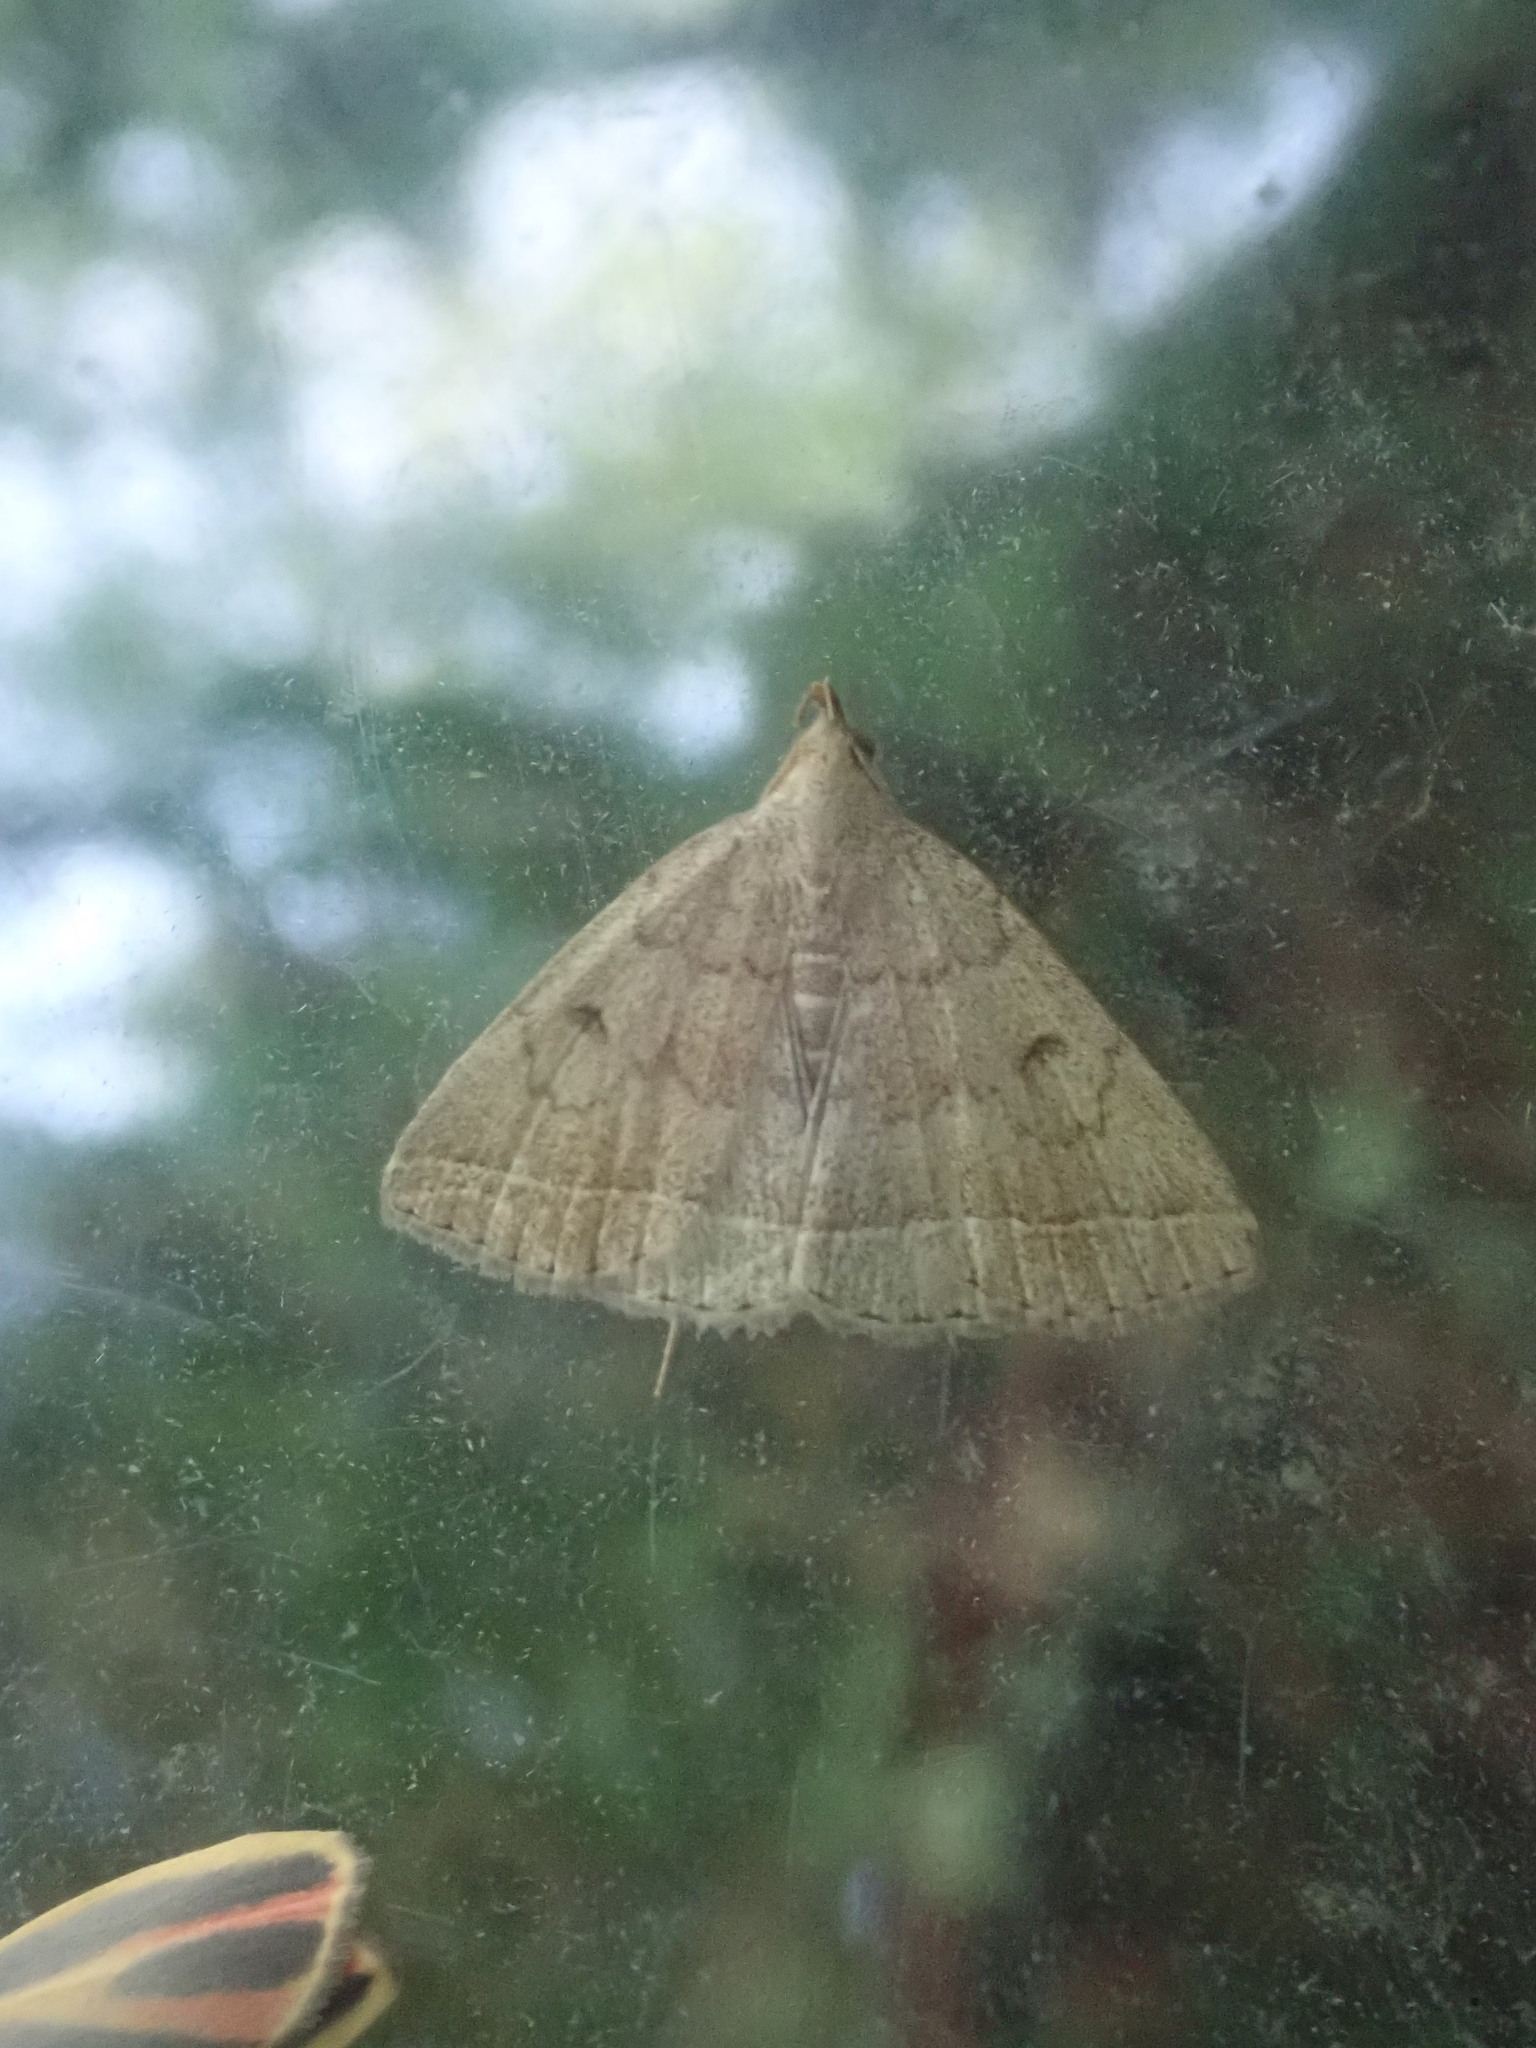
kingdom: Animalia
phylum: Arthropoda
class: Insecta
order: Lepidoptera
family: Erebidae
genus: Zanclognatha
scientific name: Zanclognatha jacchusalis
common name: Yellowish zanclognatha
